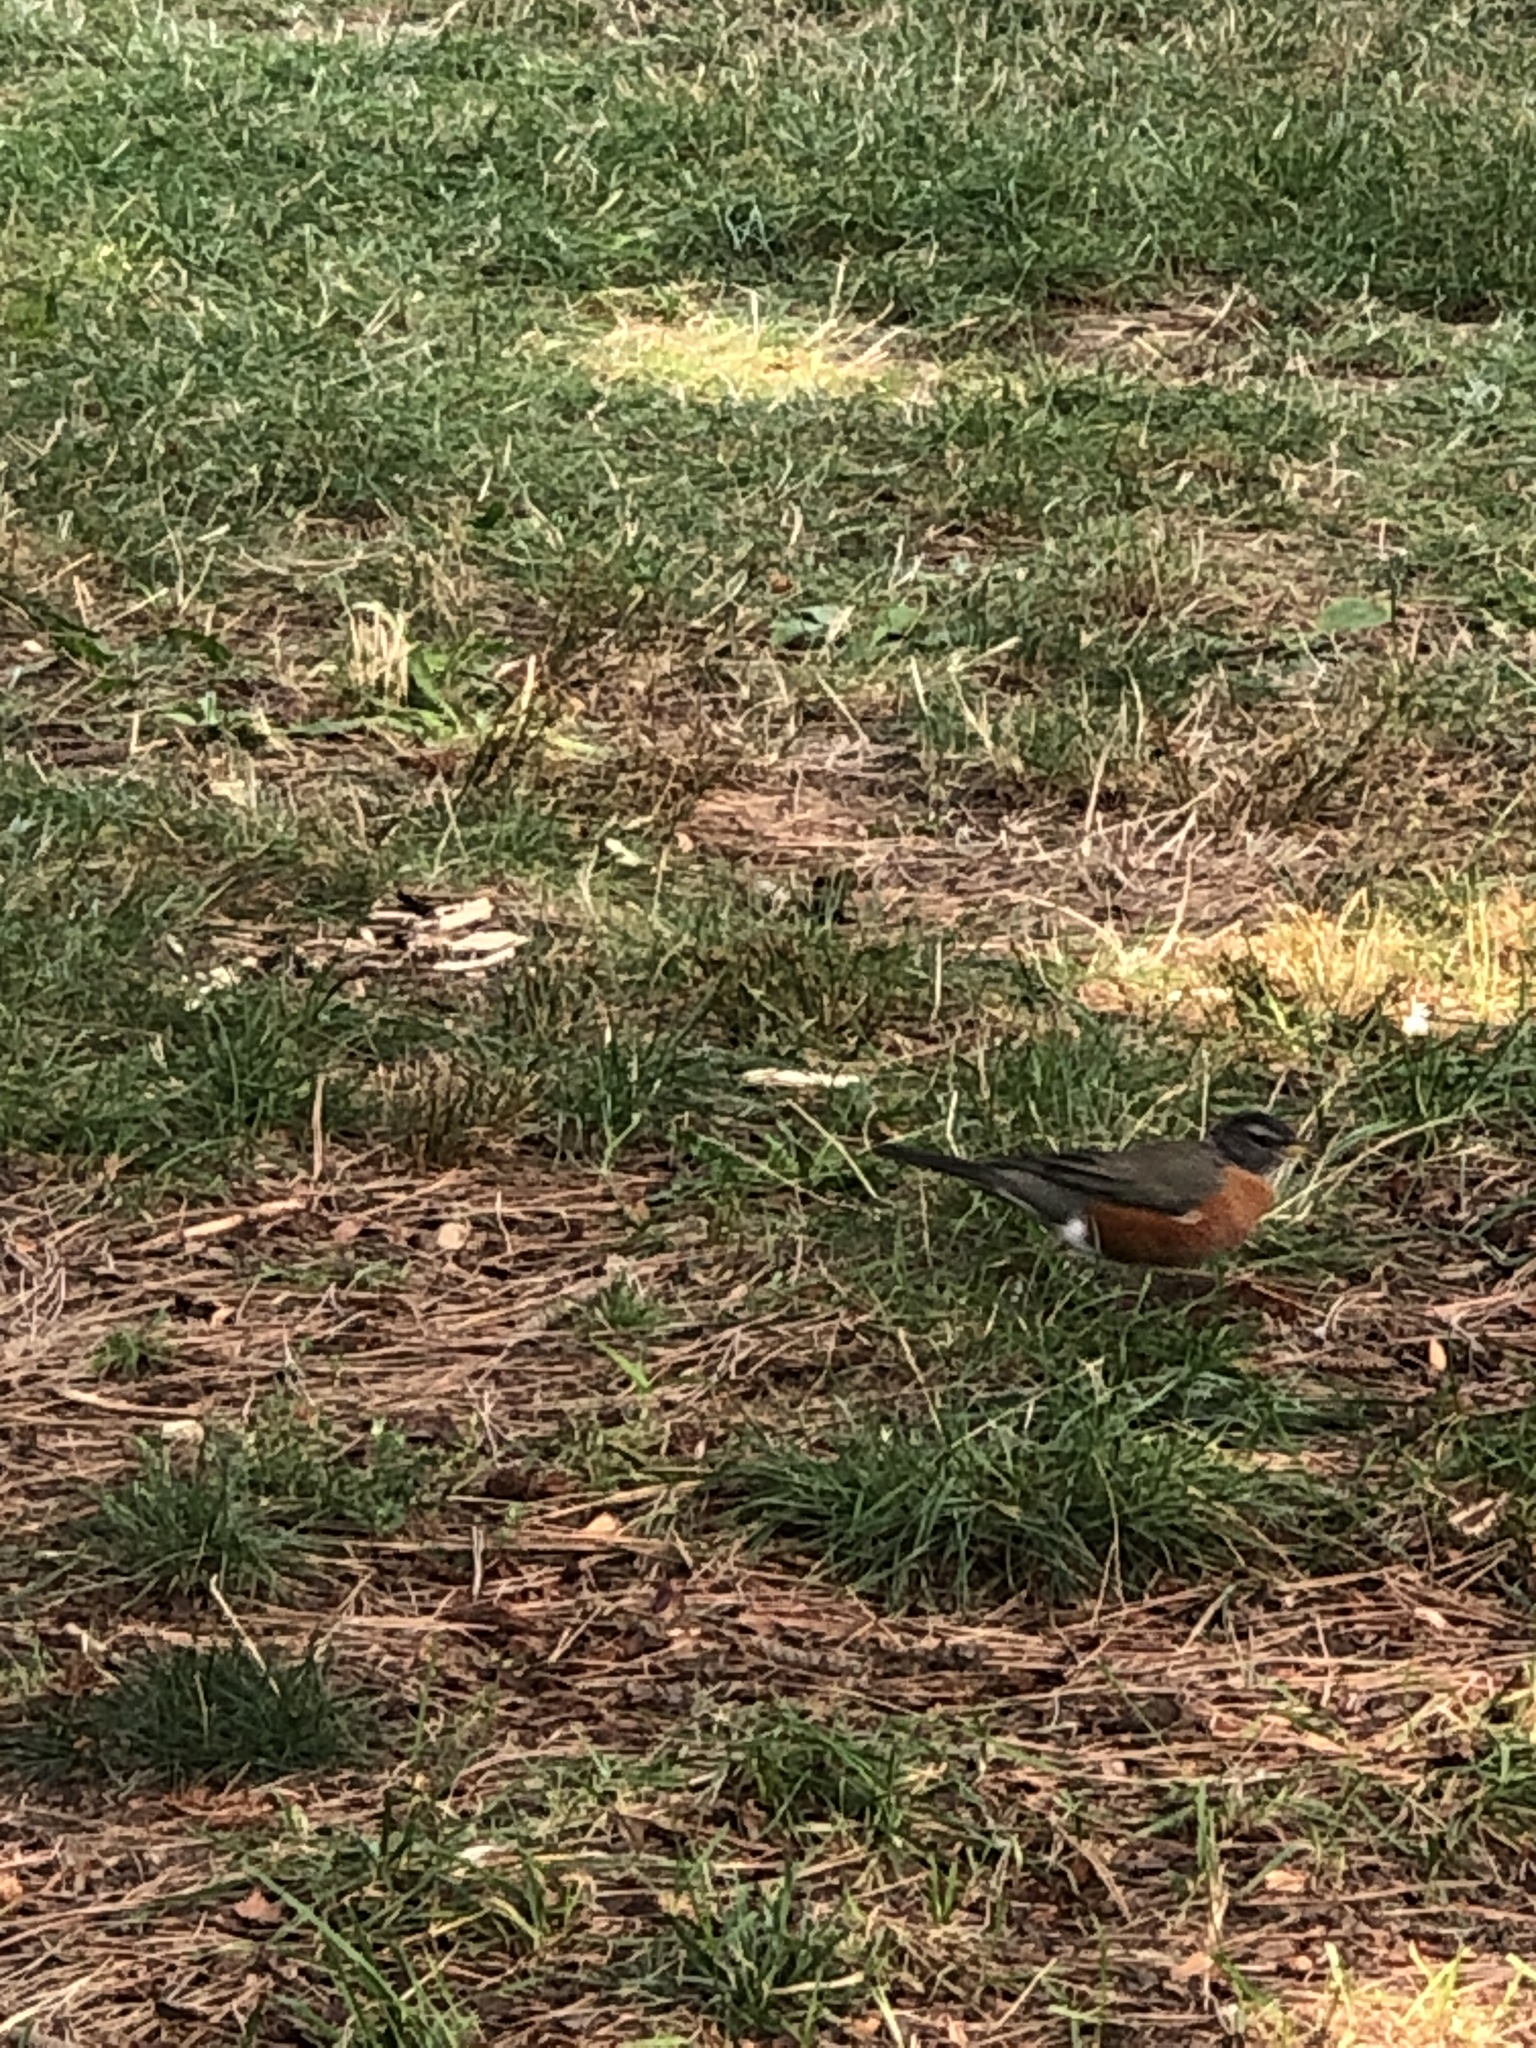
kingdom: Animalia
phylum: Chordata
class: Aves
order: Passeriformes
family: Turdidae
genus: Turdus
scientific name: Turdus migratorius
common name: American robin
